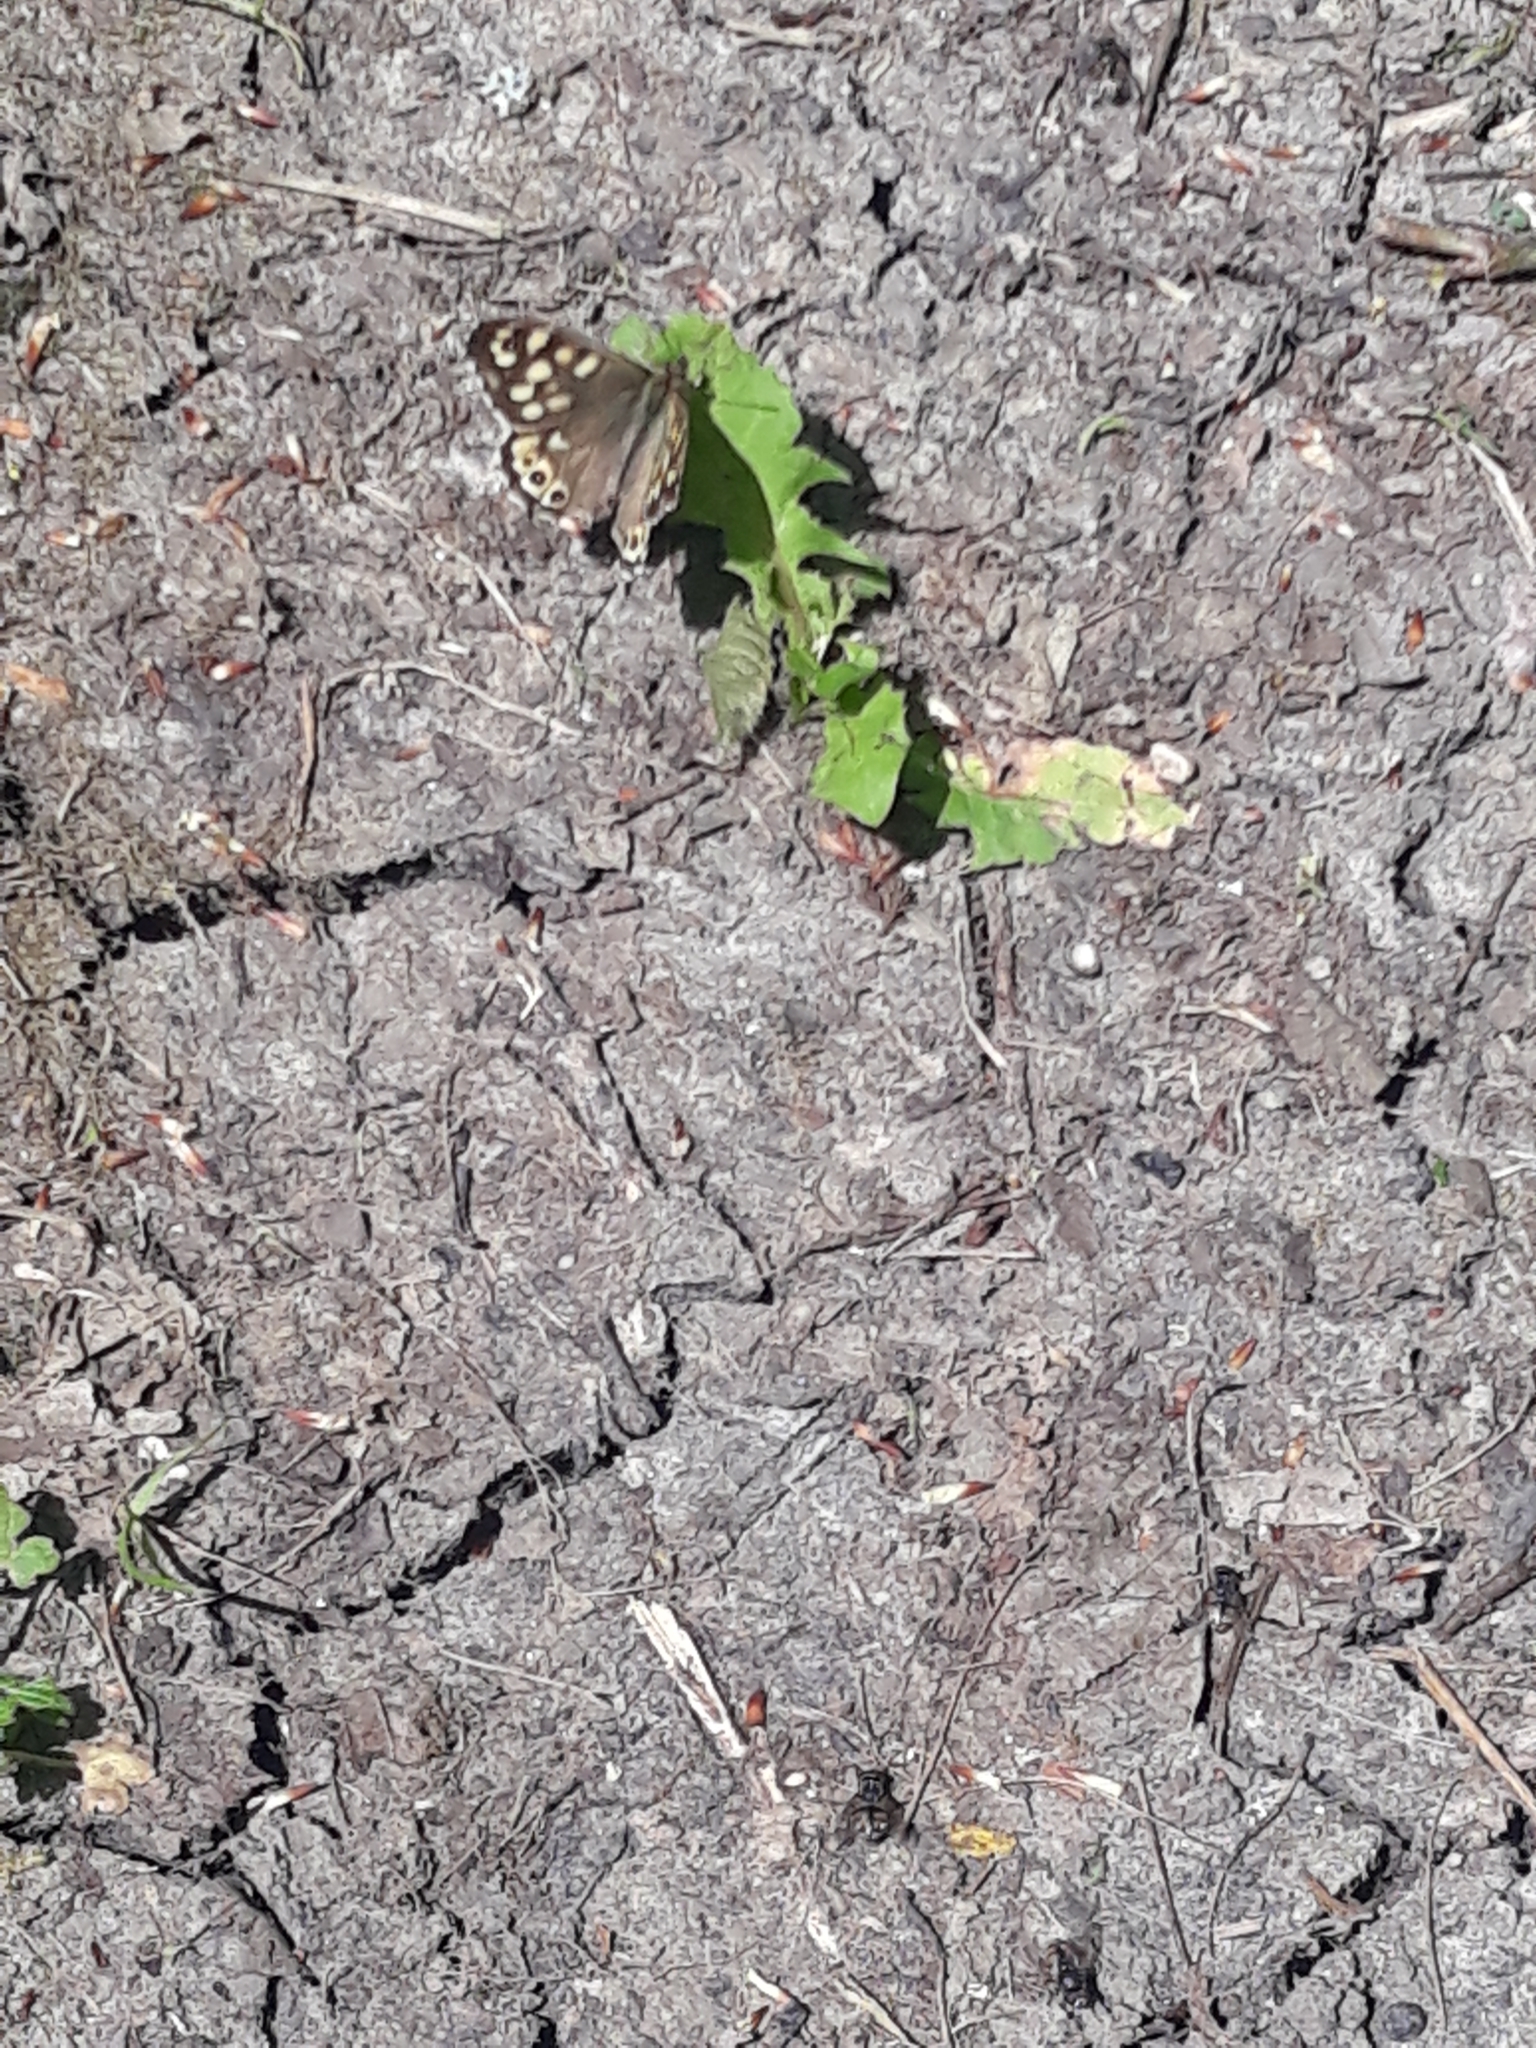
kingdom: Animalia
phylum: Arthropoda
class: Insecta
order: Lepidoptera
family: Nymphalidae
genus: Pararge
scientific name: Pararge aegeria
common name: Speckled wood
